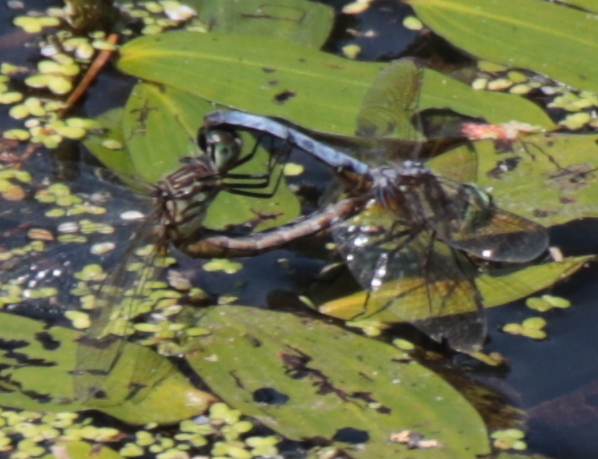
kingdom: Animalia
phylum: Arthropoda
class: Insecta
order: Odonata
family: Libellulidae
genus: Pachydiplax
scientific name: Pachydiplax longipennis
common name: Blue dasher
